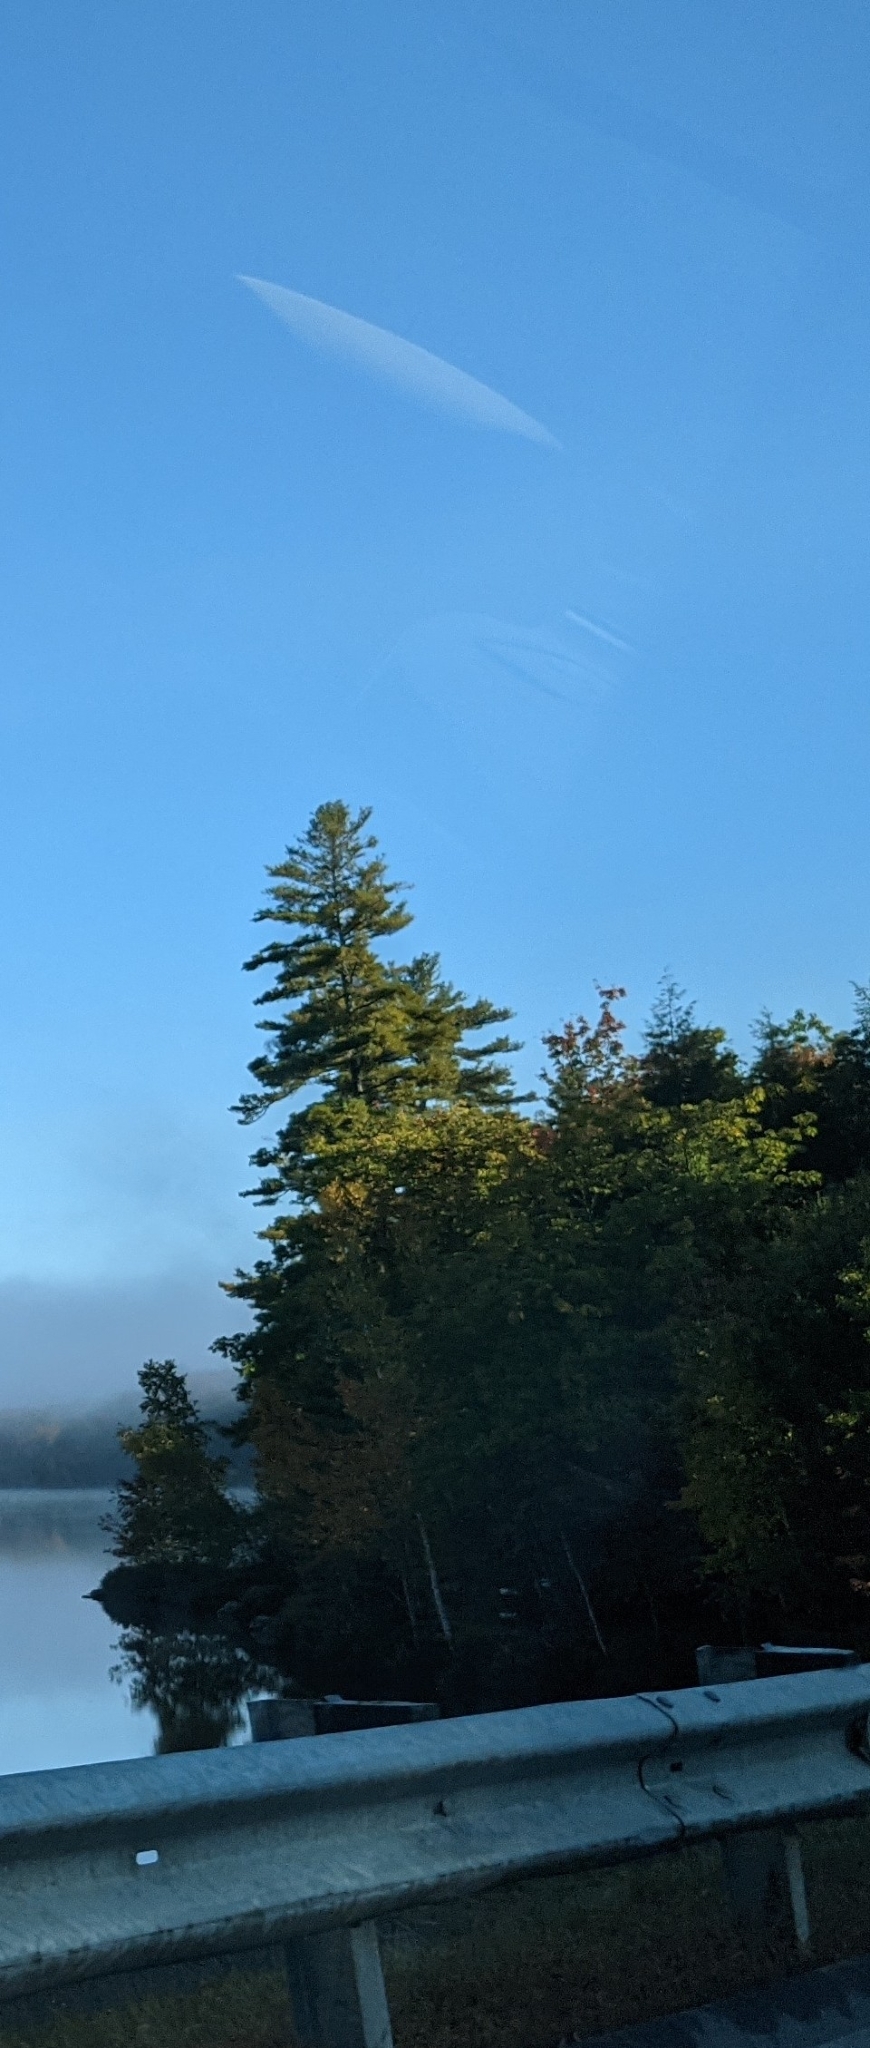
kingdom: Plantae
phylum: Tracheophyta
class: Pinopsida
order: Pinales
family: Pinaceae
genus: Pinus
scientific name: Pinus strobus
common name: Weymouth pine
